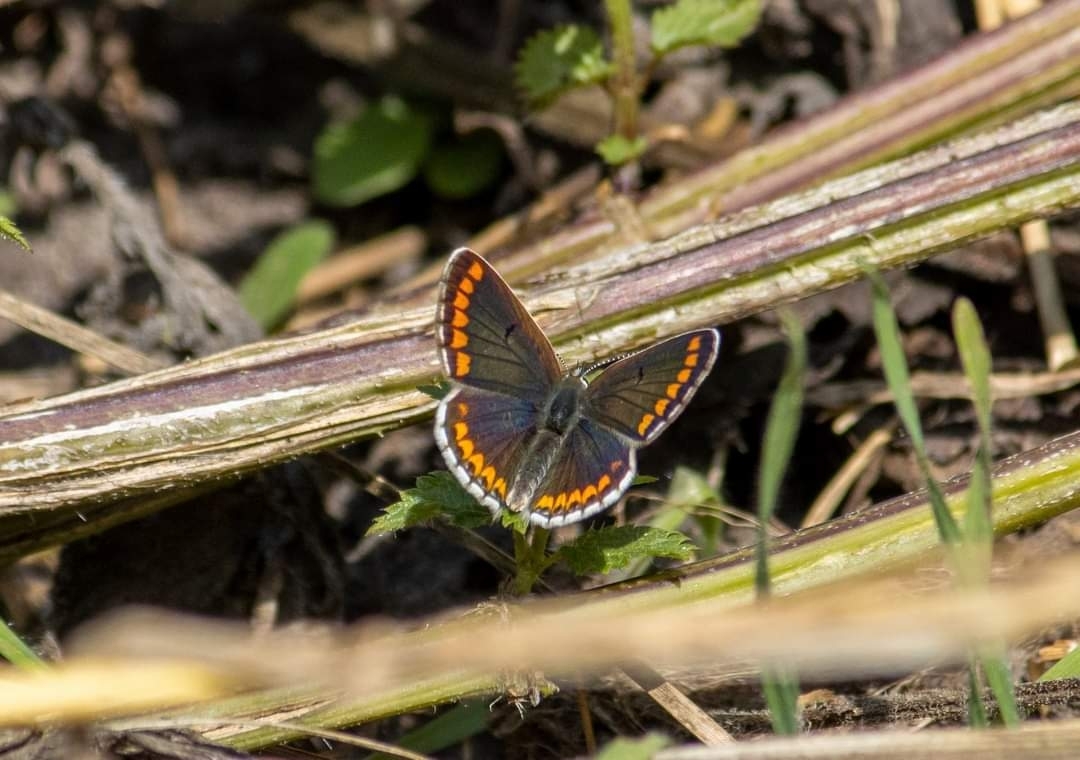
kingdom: Animalia
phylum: Arthropoda
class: Insecta
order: Lepidoptera
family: Lycaenidae
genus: Aricia
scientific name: Aricia agestis
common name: Brown argus
